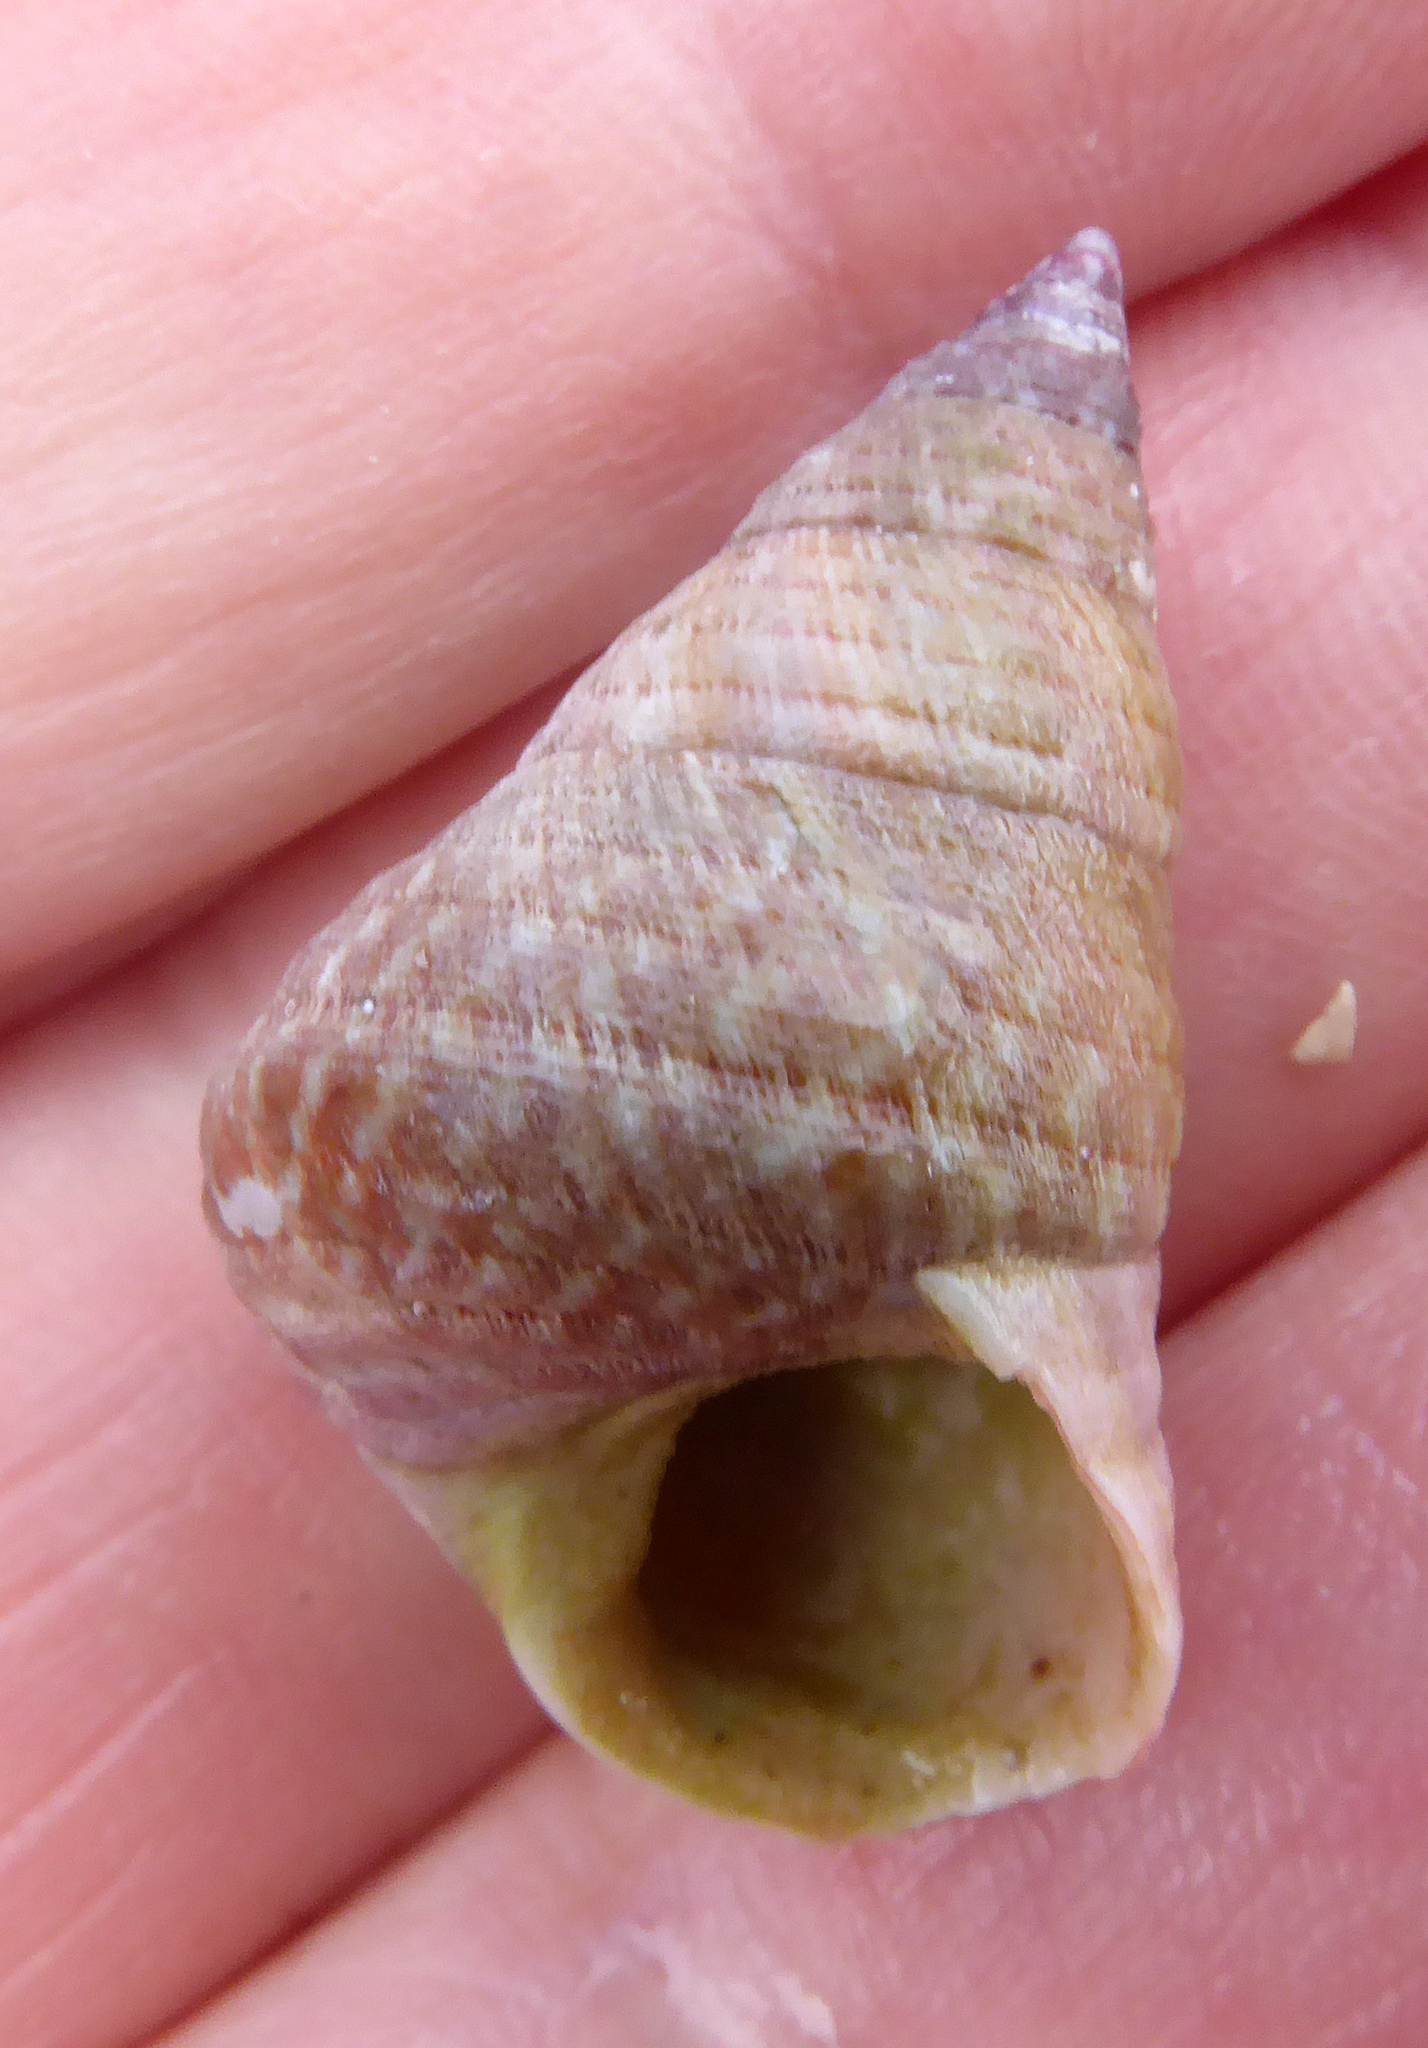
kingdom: Animalia
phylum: Mollusca
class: Gastropoda
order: Trochida
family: Trochidae
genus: Micrelenchus
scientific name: Micrelenchus purpureus
